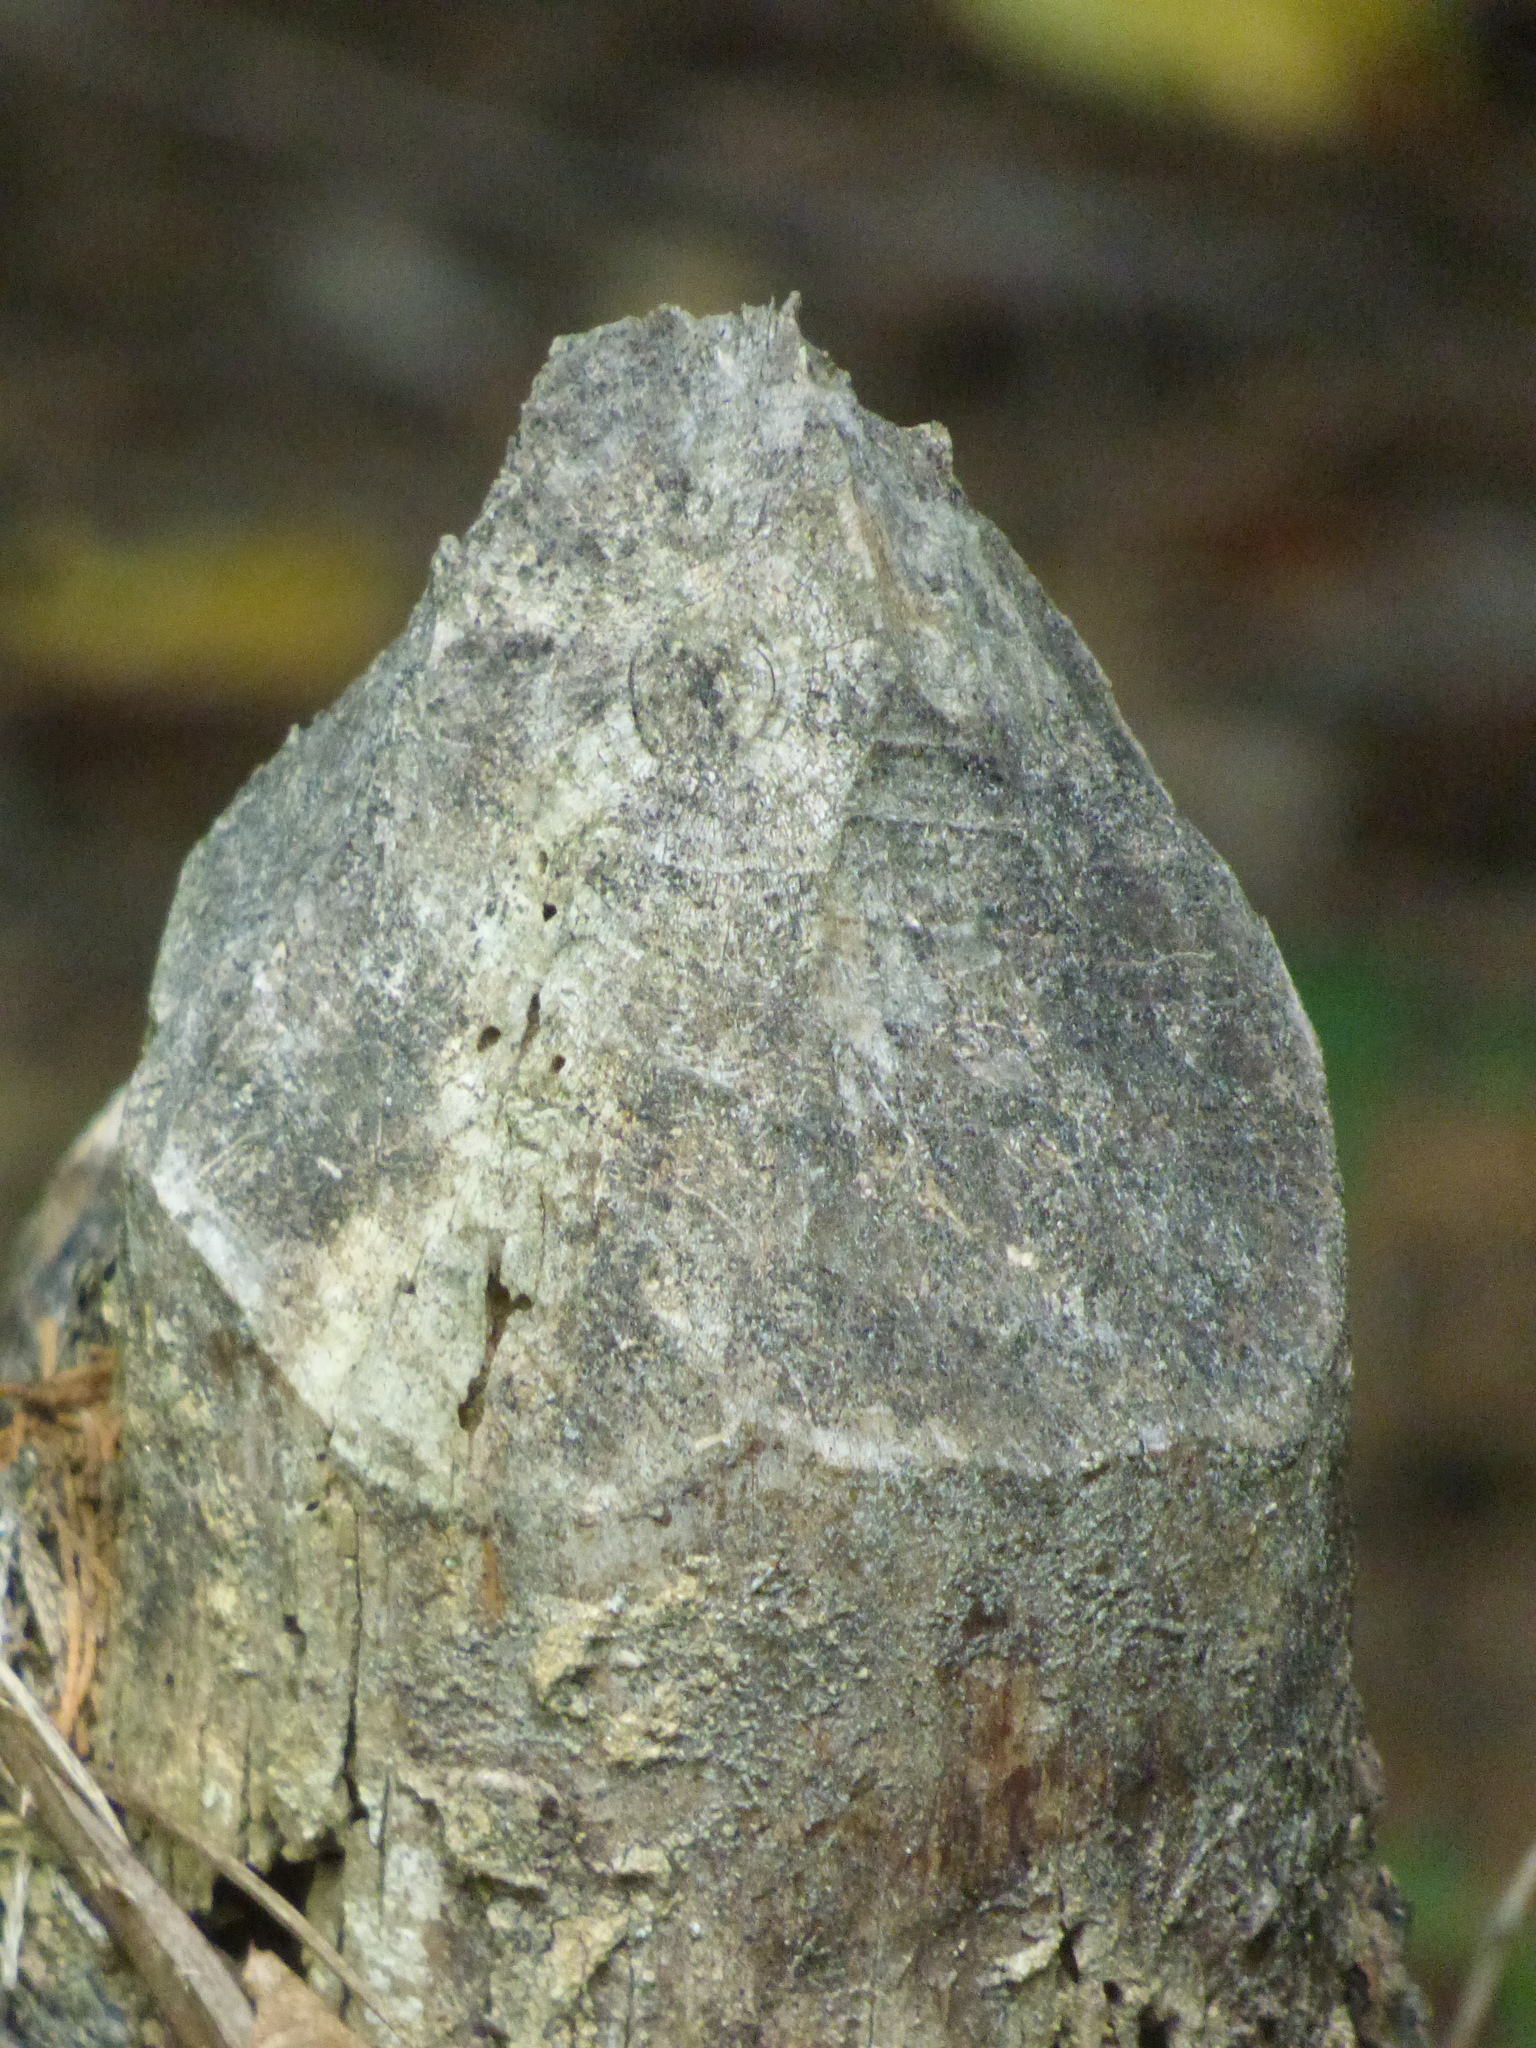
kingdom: Animalia
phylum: Chordata
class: Mammalia
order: Rodentia
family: Castoridae
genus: Castor
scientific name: Castor canadensis
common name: American beaver
